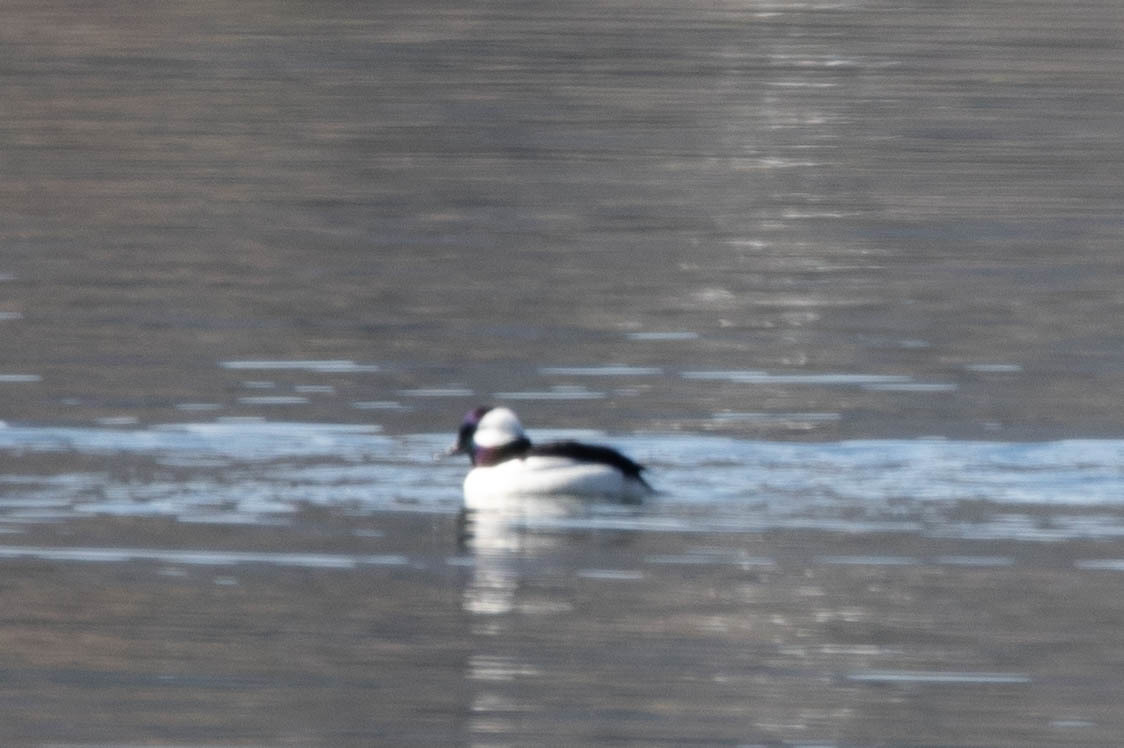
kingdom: Animalia
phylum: Chordata
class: Aves
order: Anseriformes
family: Anatidae
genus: Bucephala
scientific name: Bucephala albeola
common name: Bufflehead
